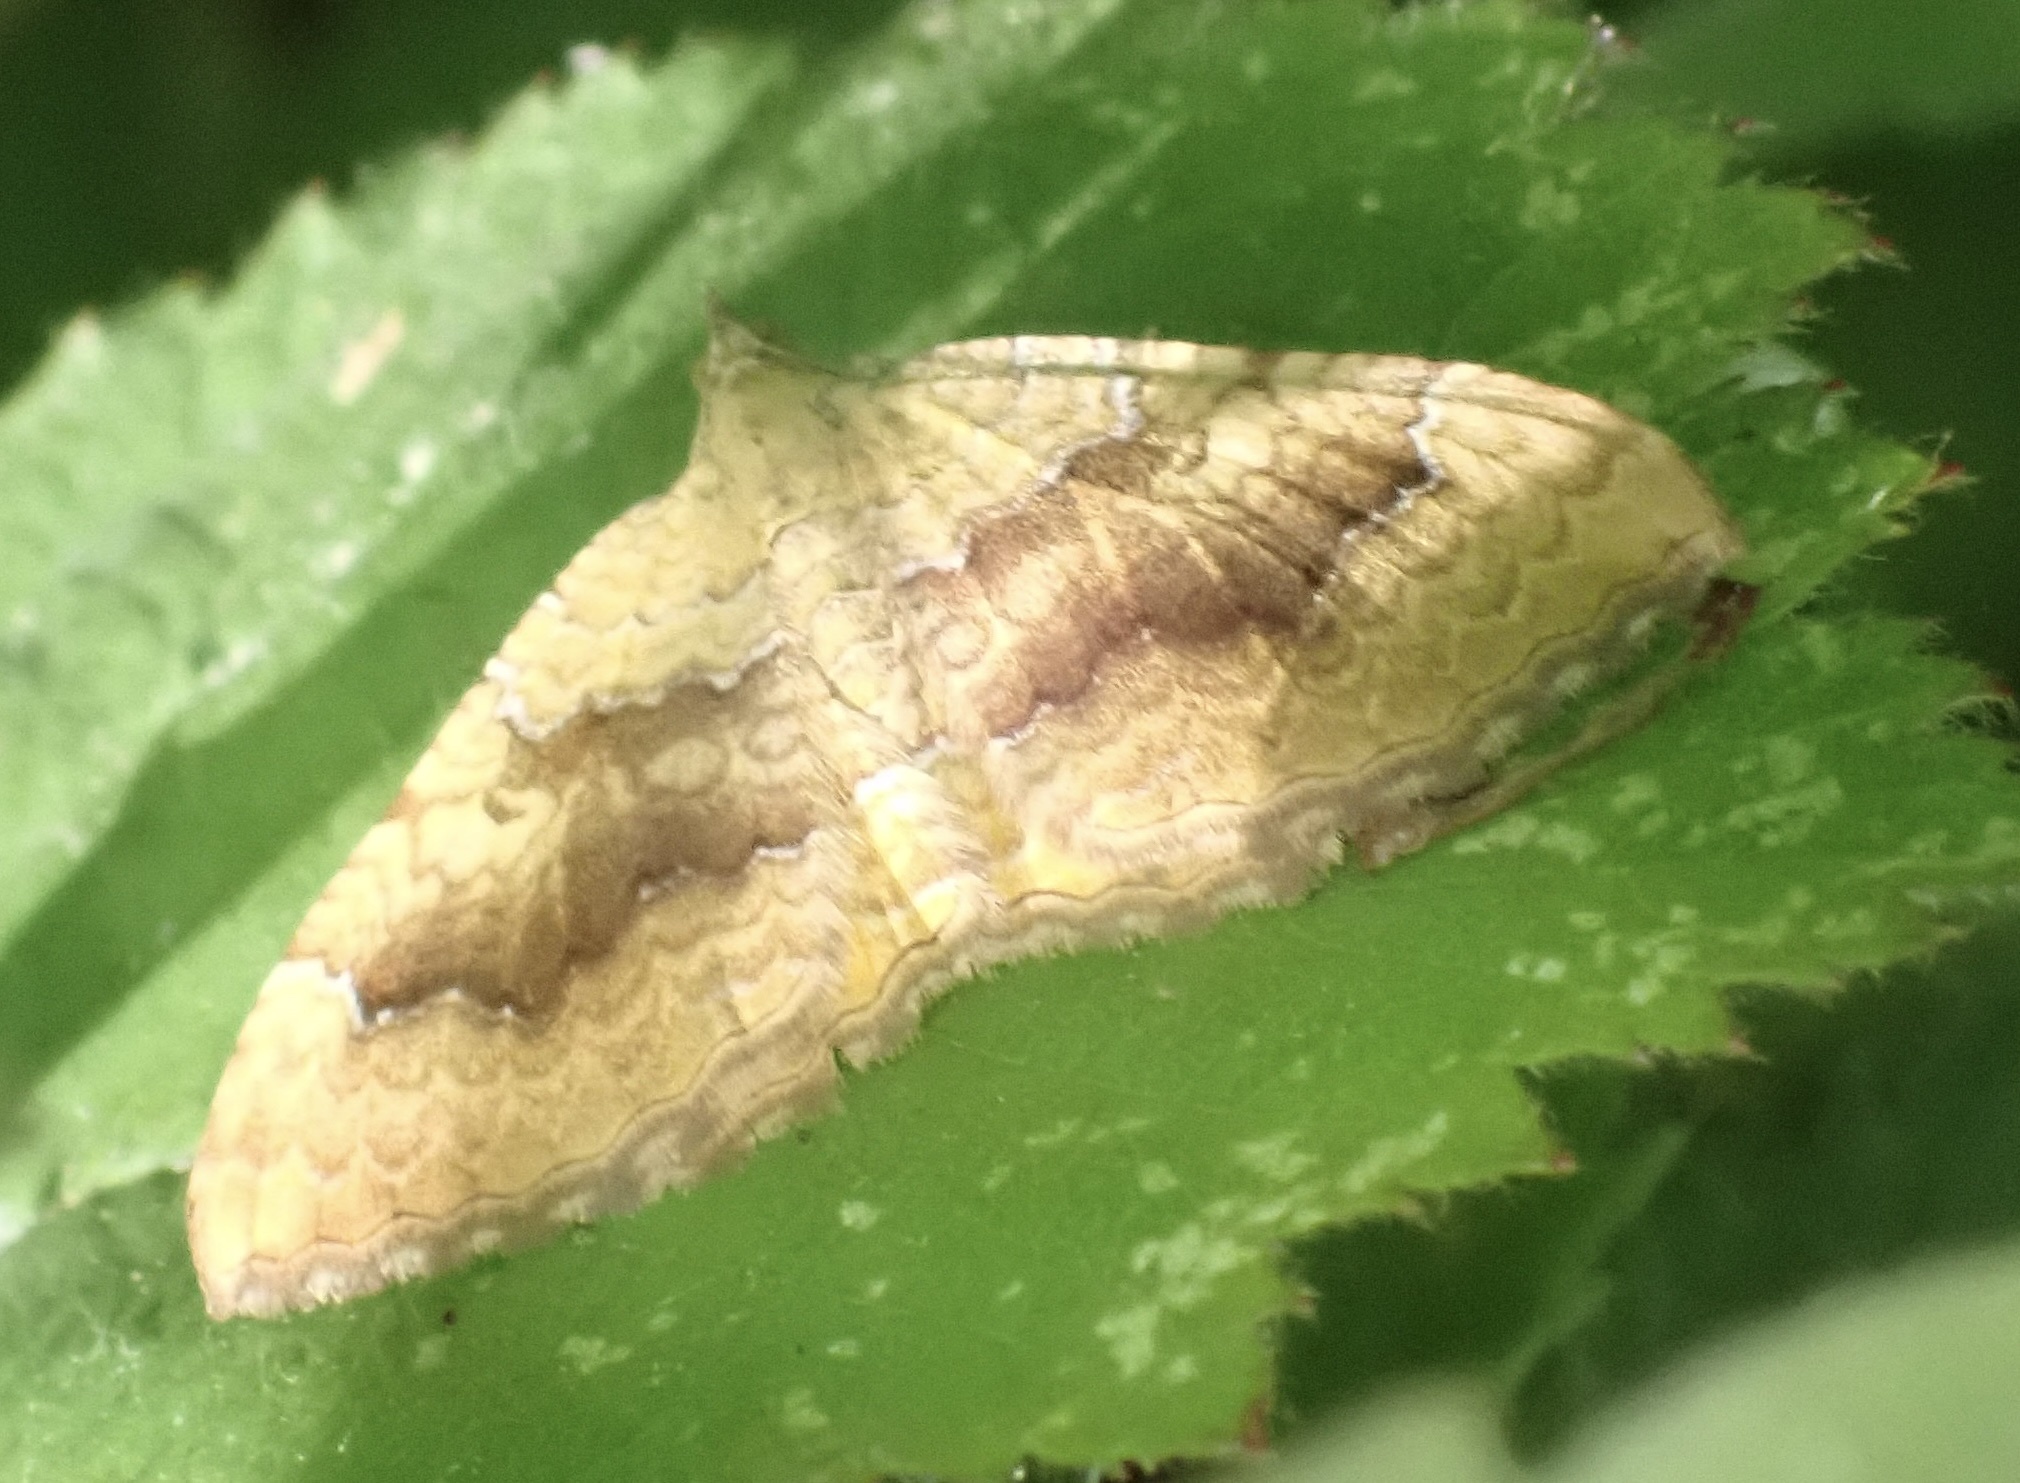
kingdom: Animalia
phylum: Arthropoda
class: Insecta
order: Lepidoptera
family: Geometridae
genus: Camptogramma
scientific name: Camptogramma bilineata
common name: Yellow shell
